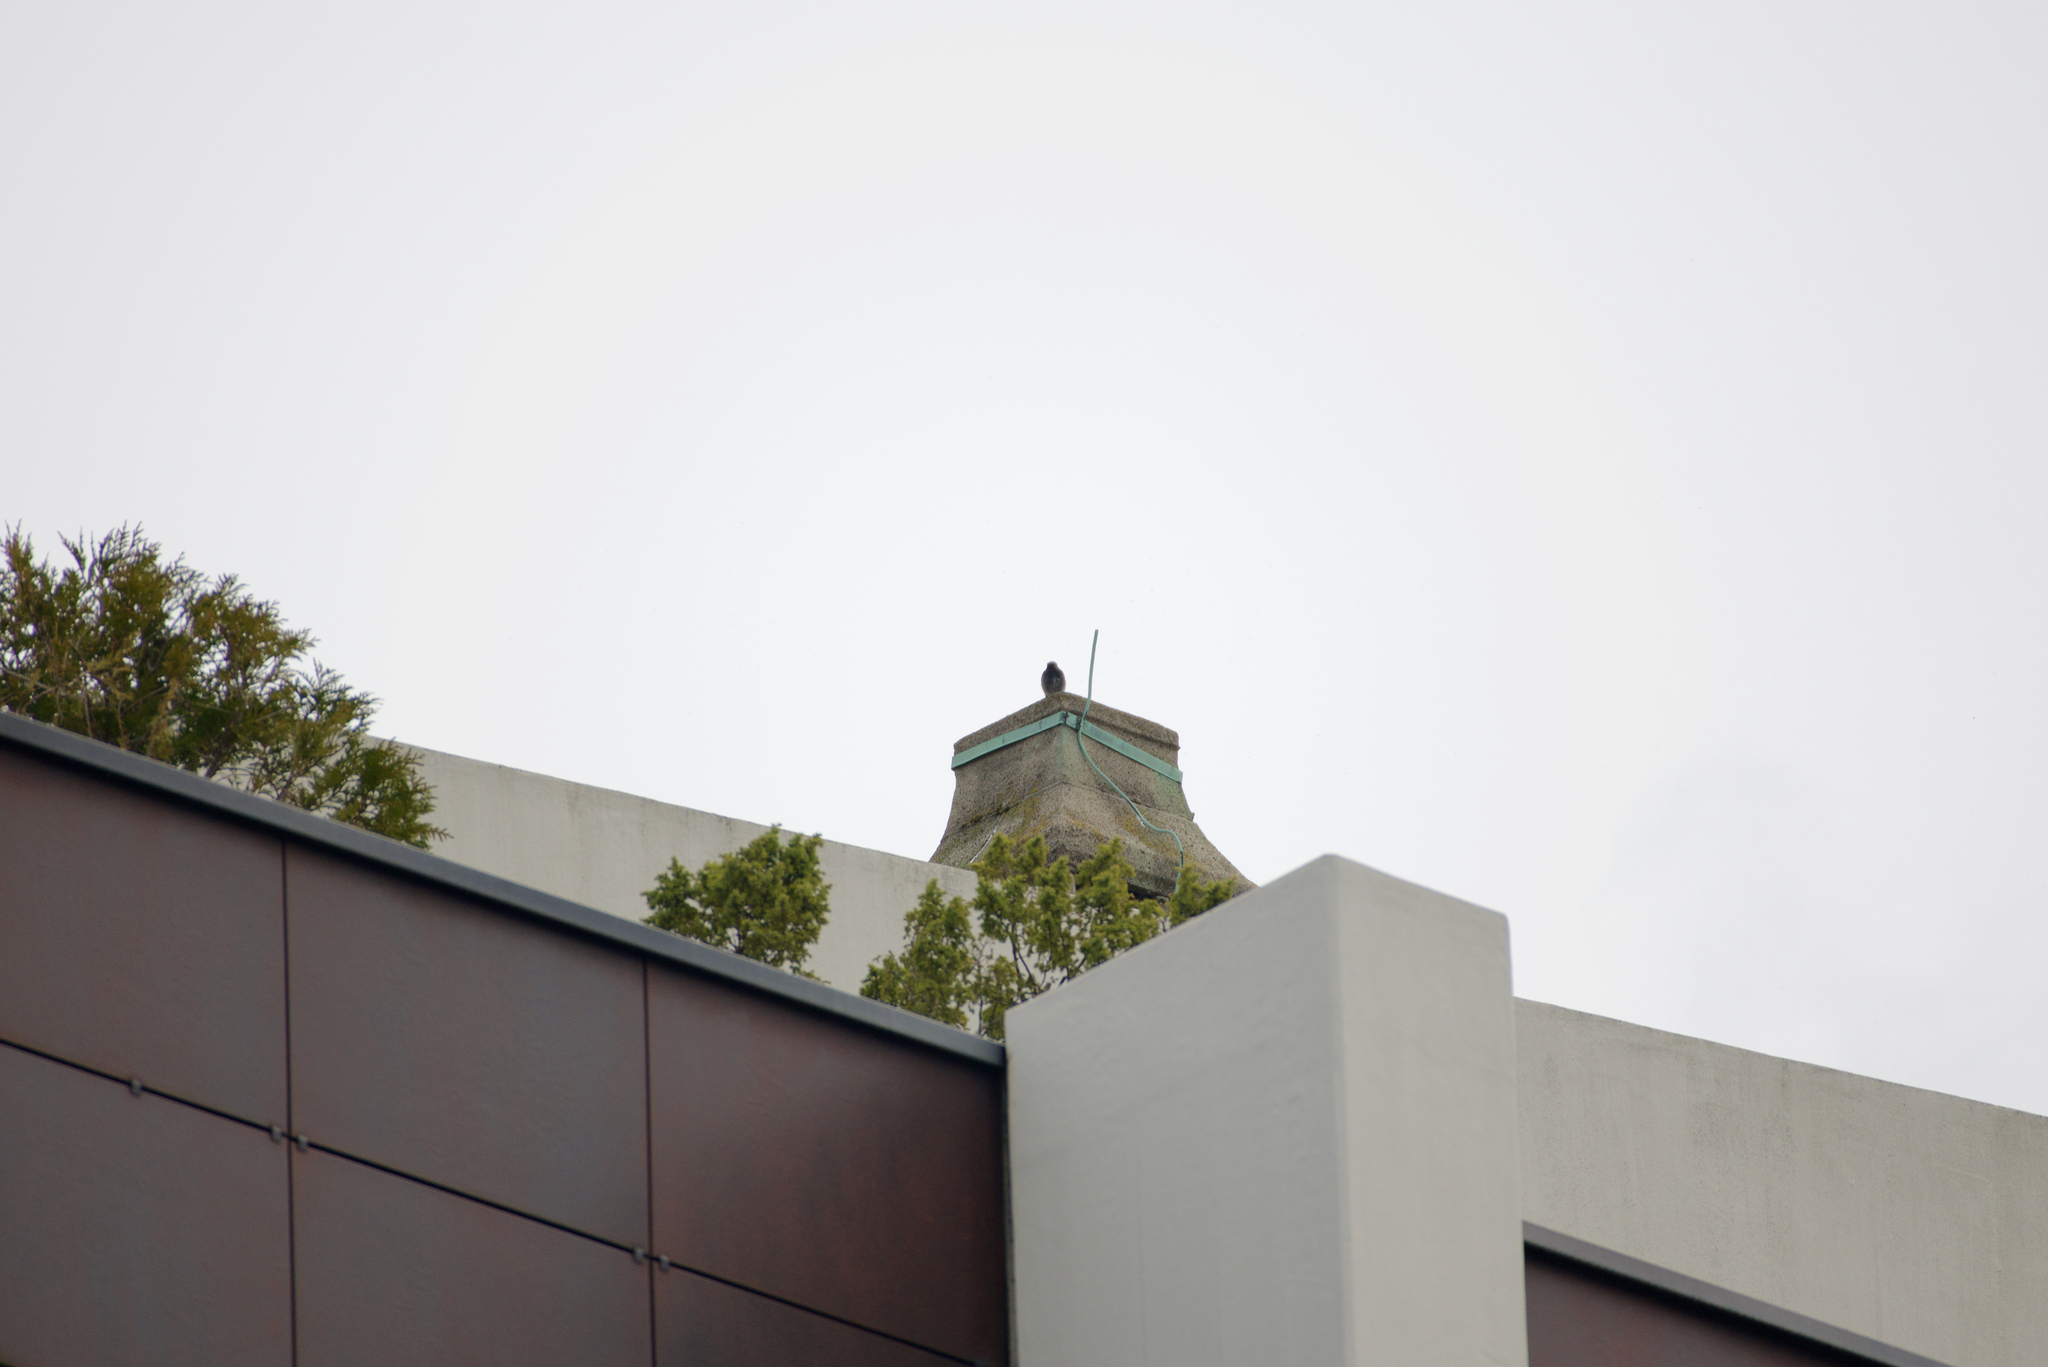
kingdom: Animalia
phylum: Chordata
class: Aves
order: Passeriformes
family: Muscicapidae
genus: Phoenicurus
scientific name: Phoenicurus ochruros
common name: Black redstart
